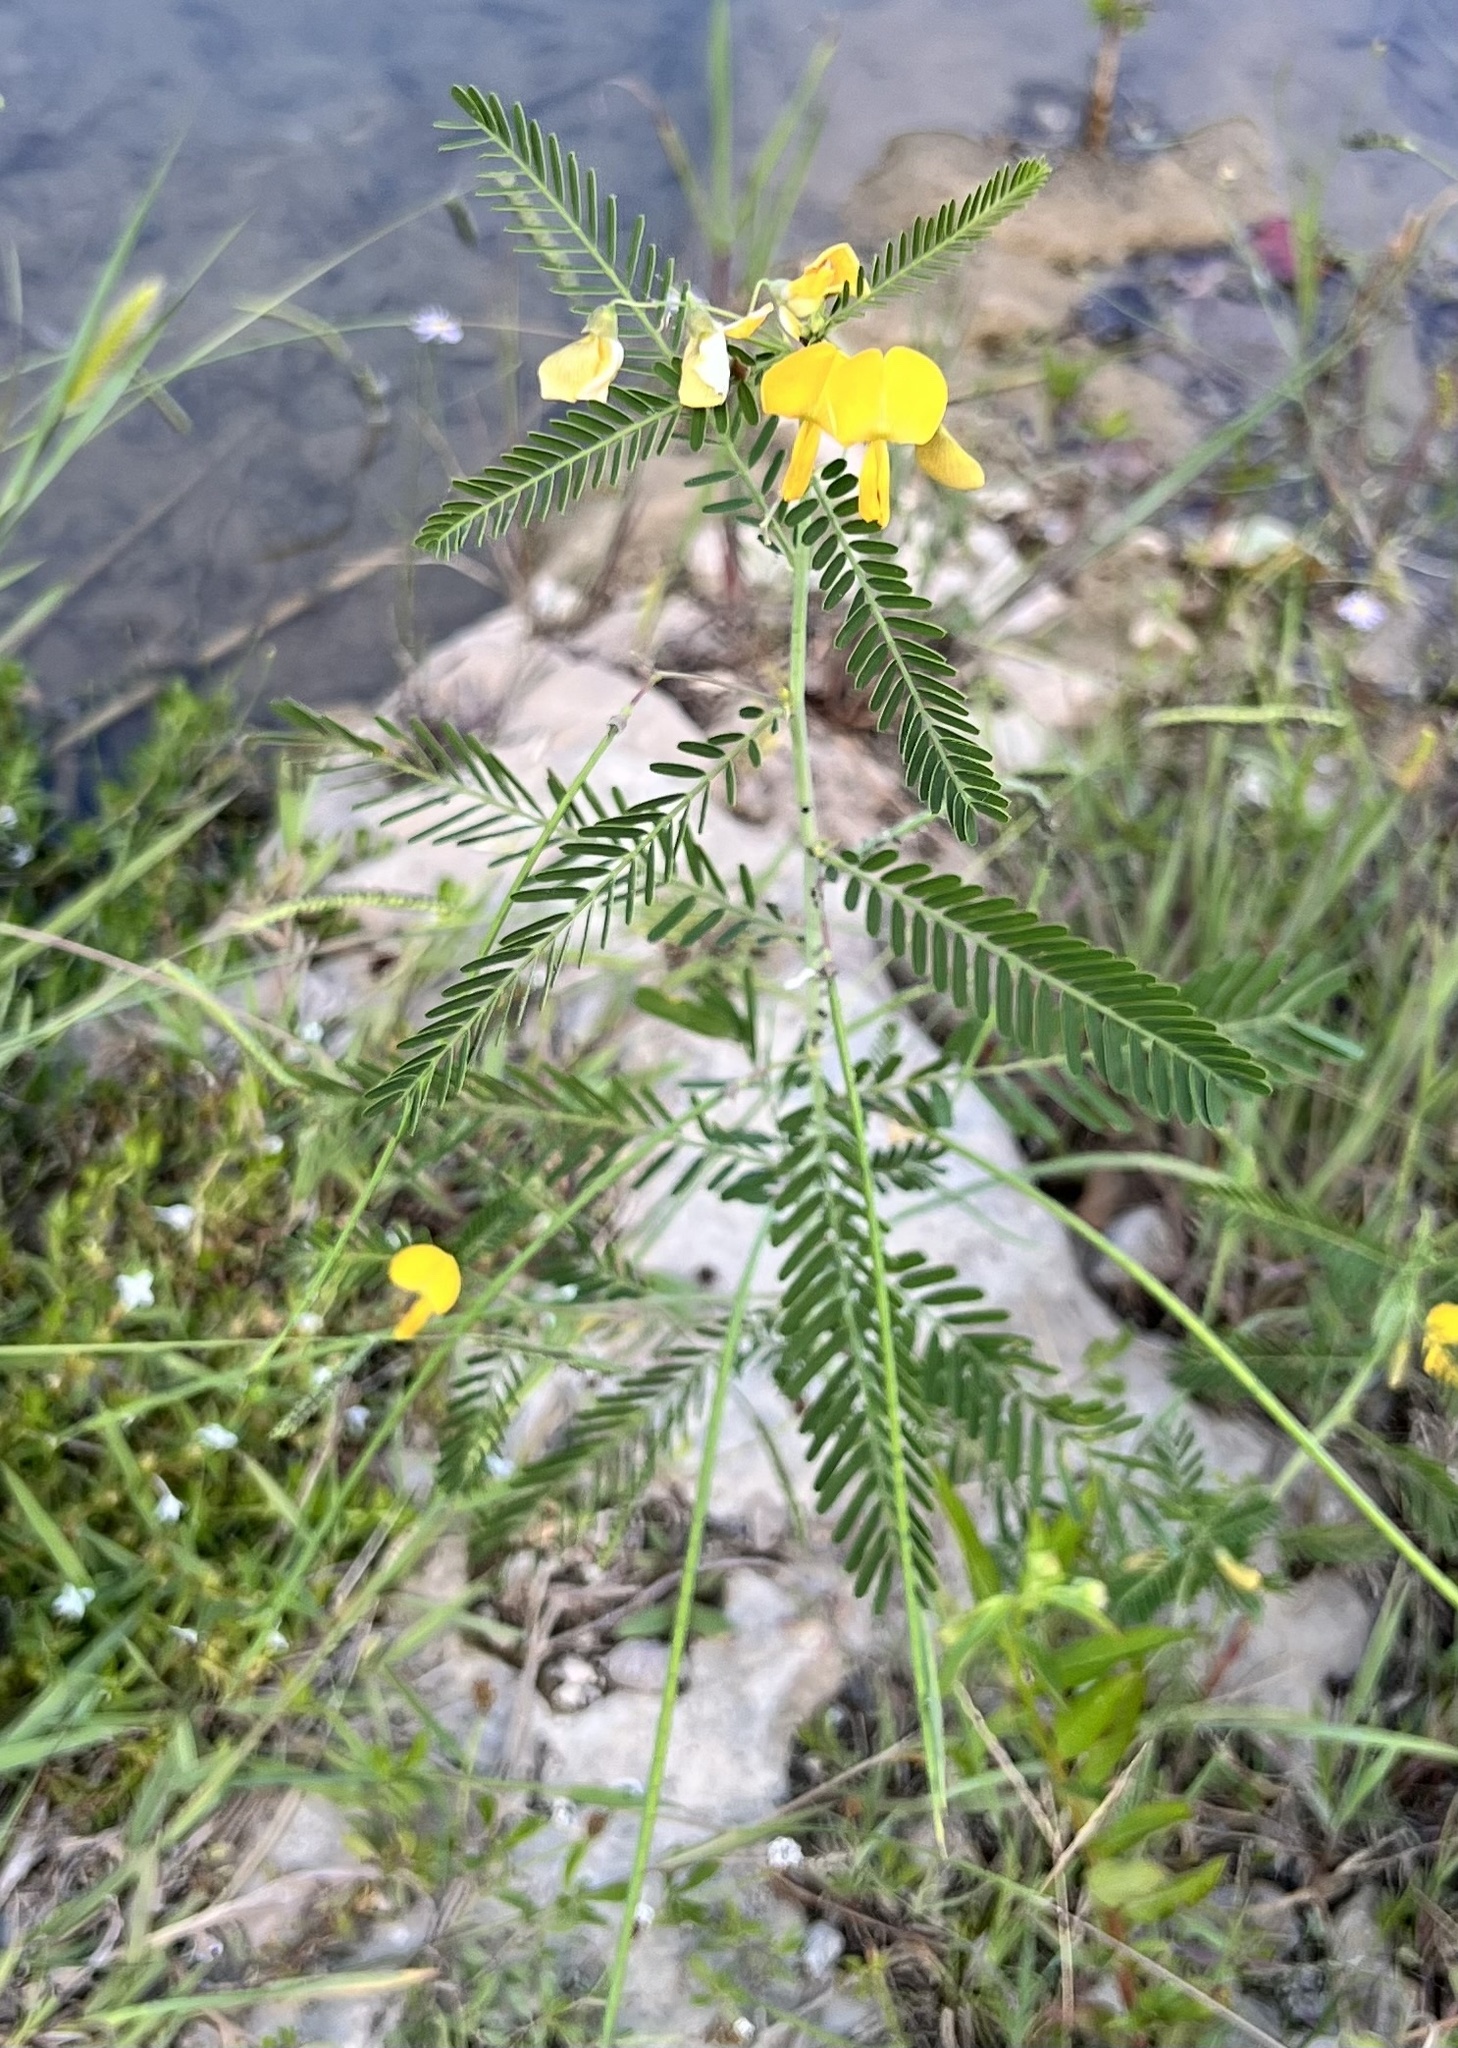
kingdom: Plantae
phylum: Tracheophyta
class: Magnoliopsida
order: Fabales
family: Fabaceae
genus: Sesbania
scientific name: Sesbania herbacea
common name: Bigpod sesbania
